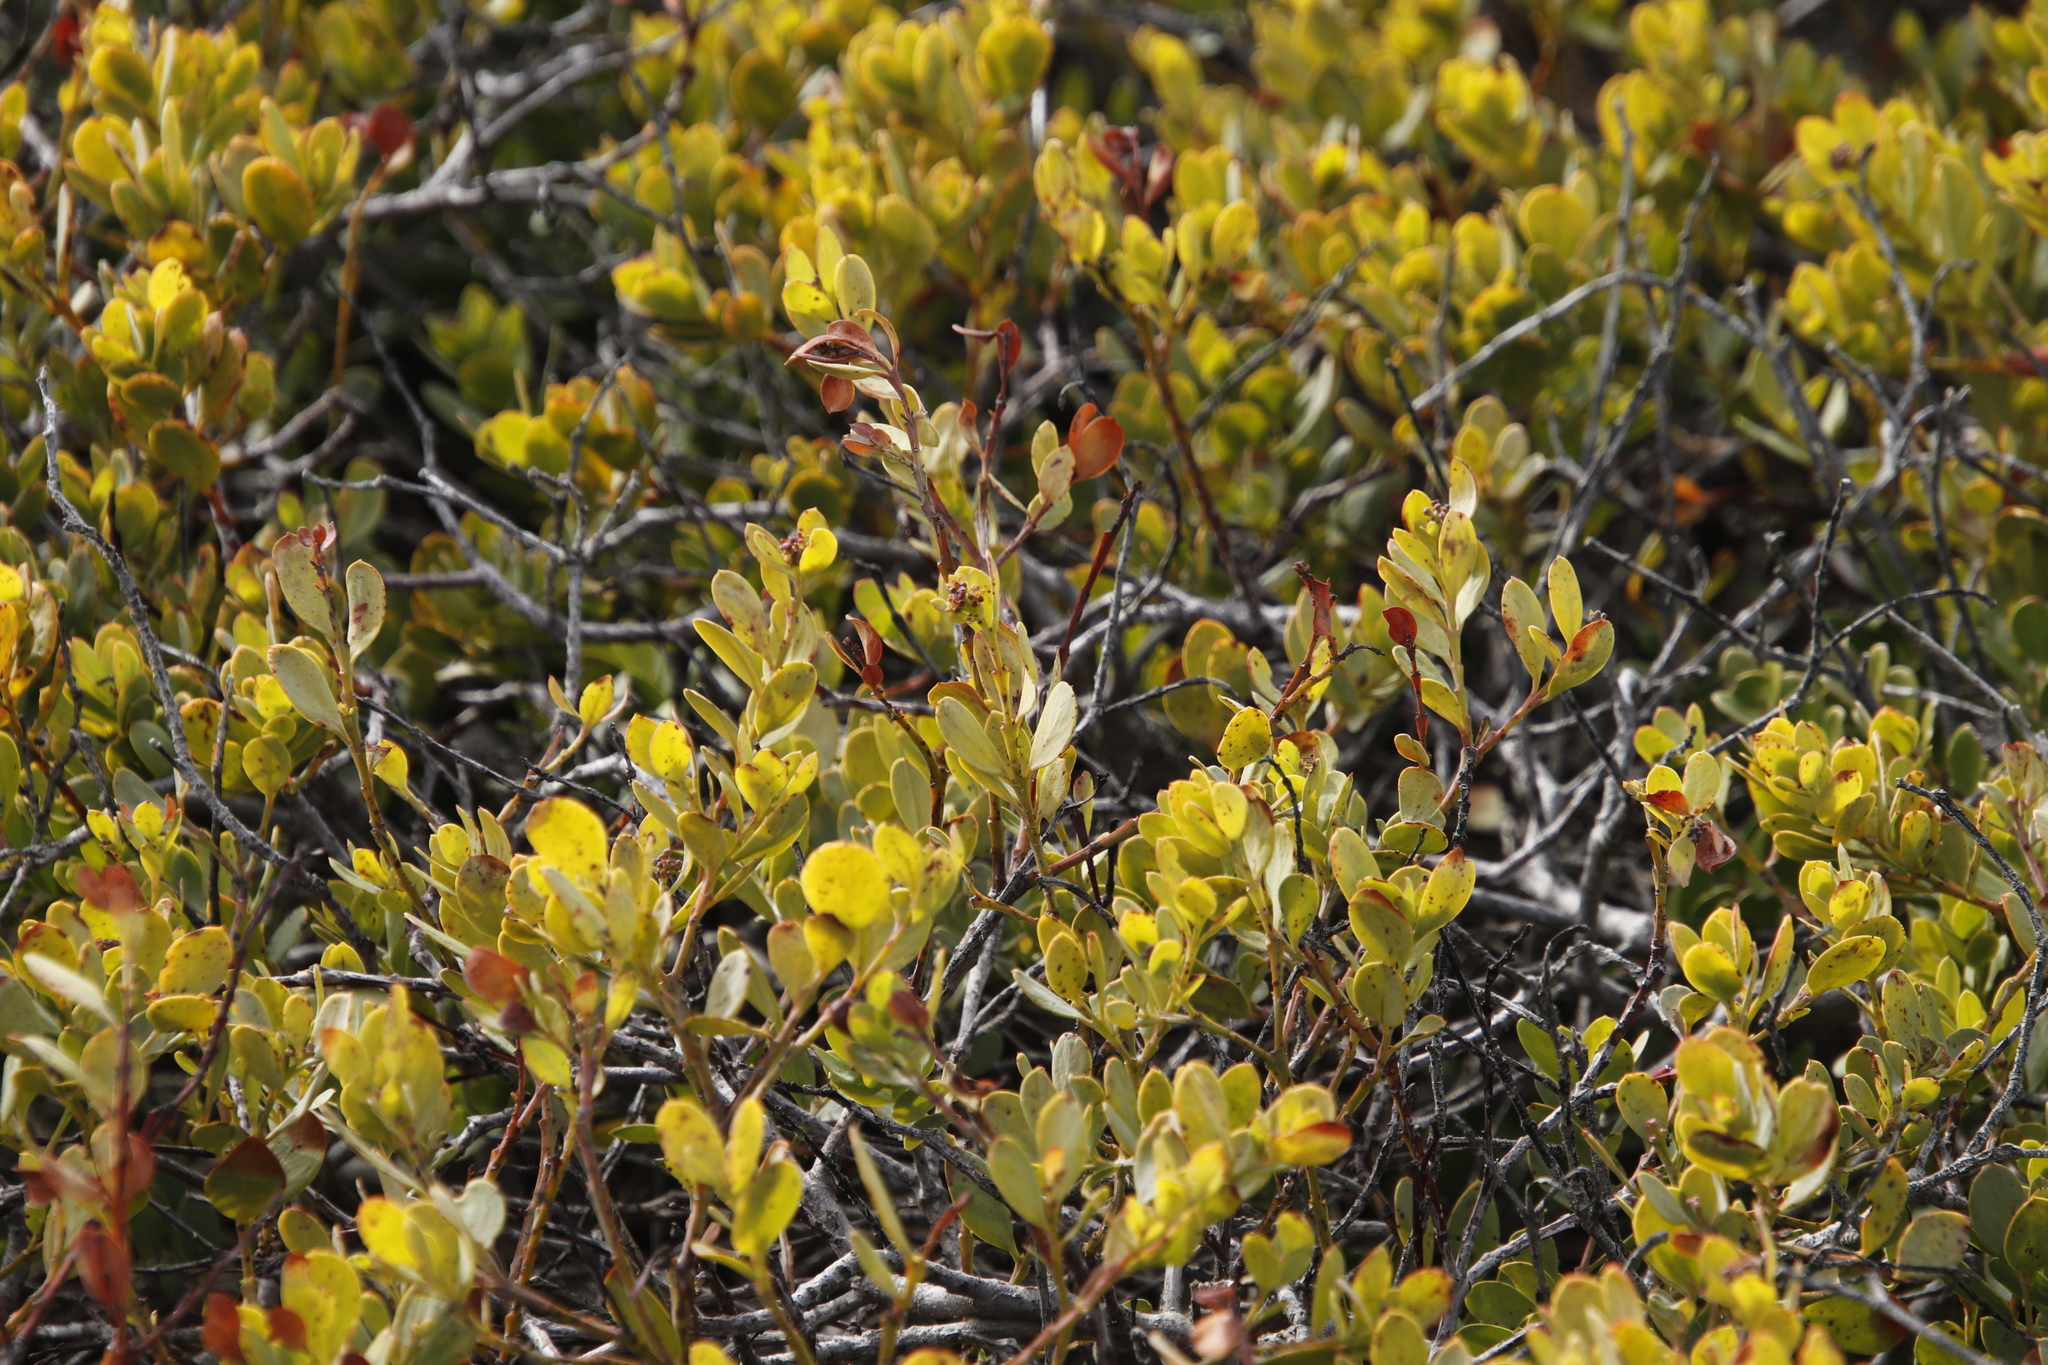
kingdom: Plantae
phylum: Tracheophyta
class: Magnoliopsida
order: Ericales
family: Ebenaceae
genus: Euclea
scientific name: Euclea racemosa
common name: Dune guarri
